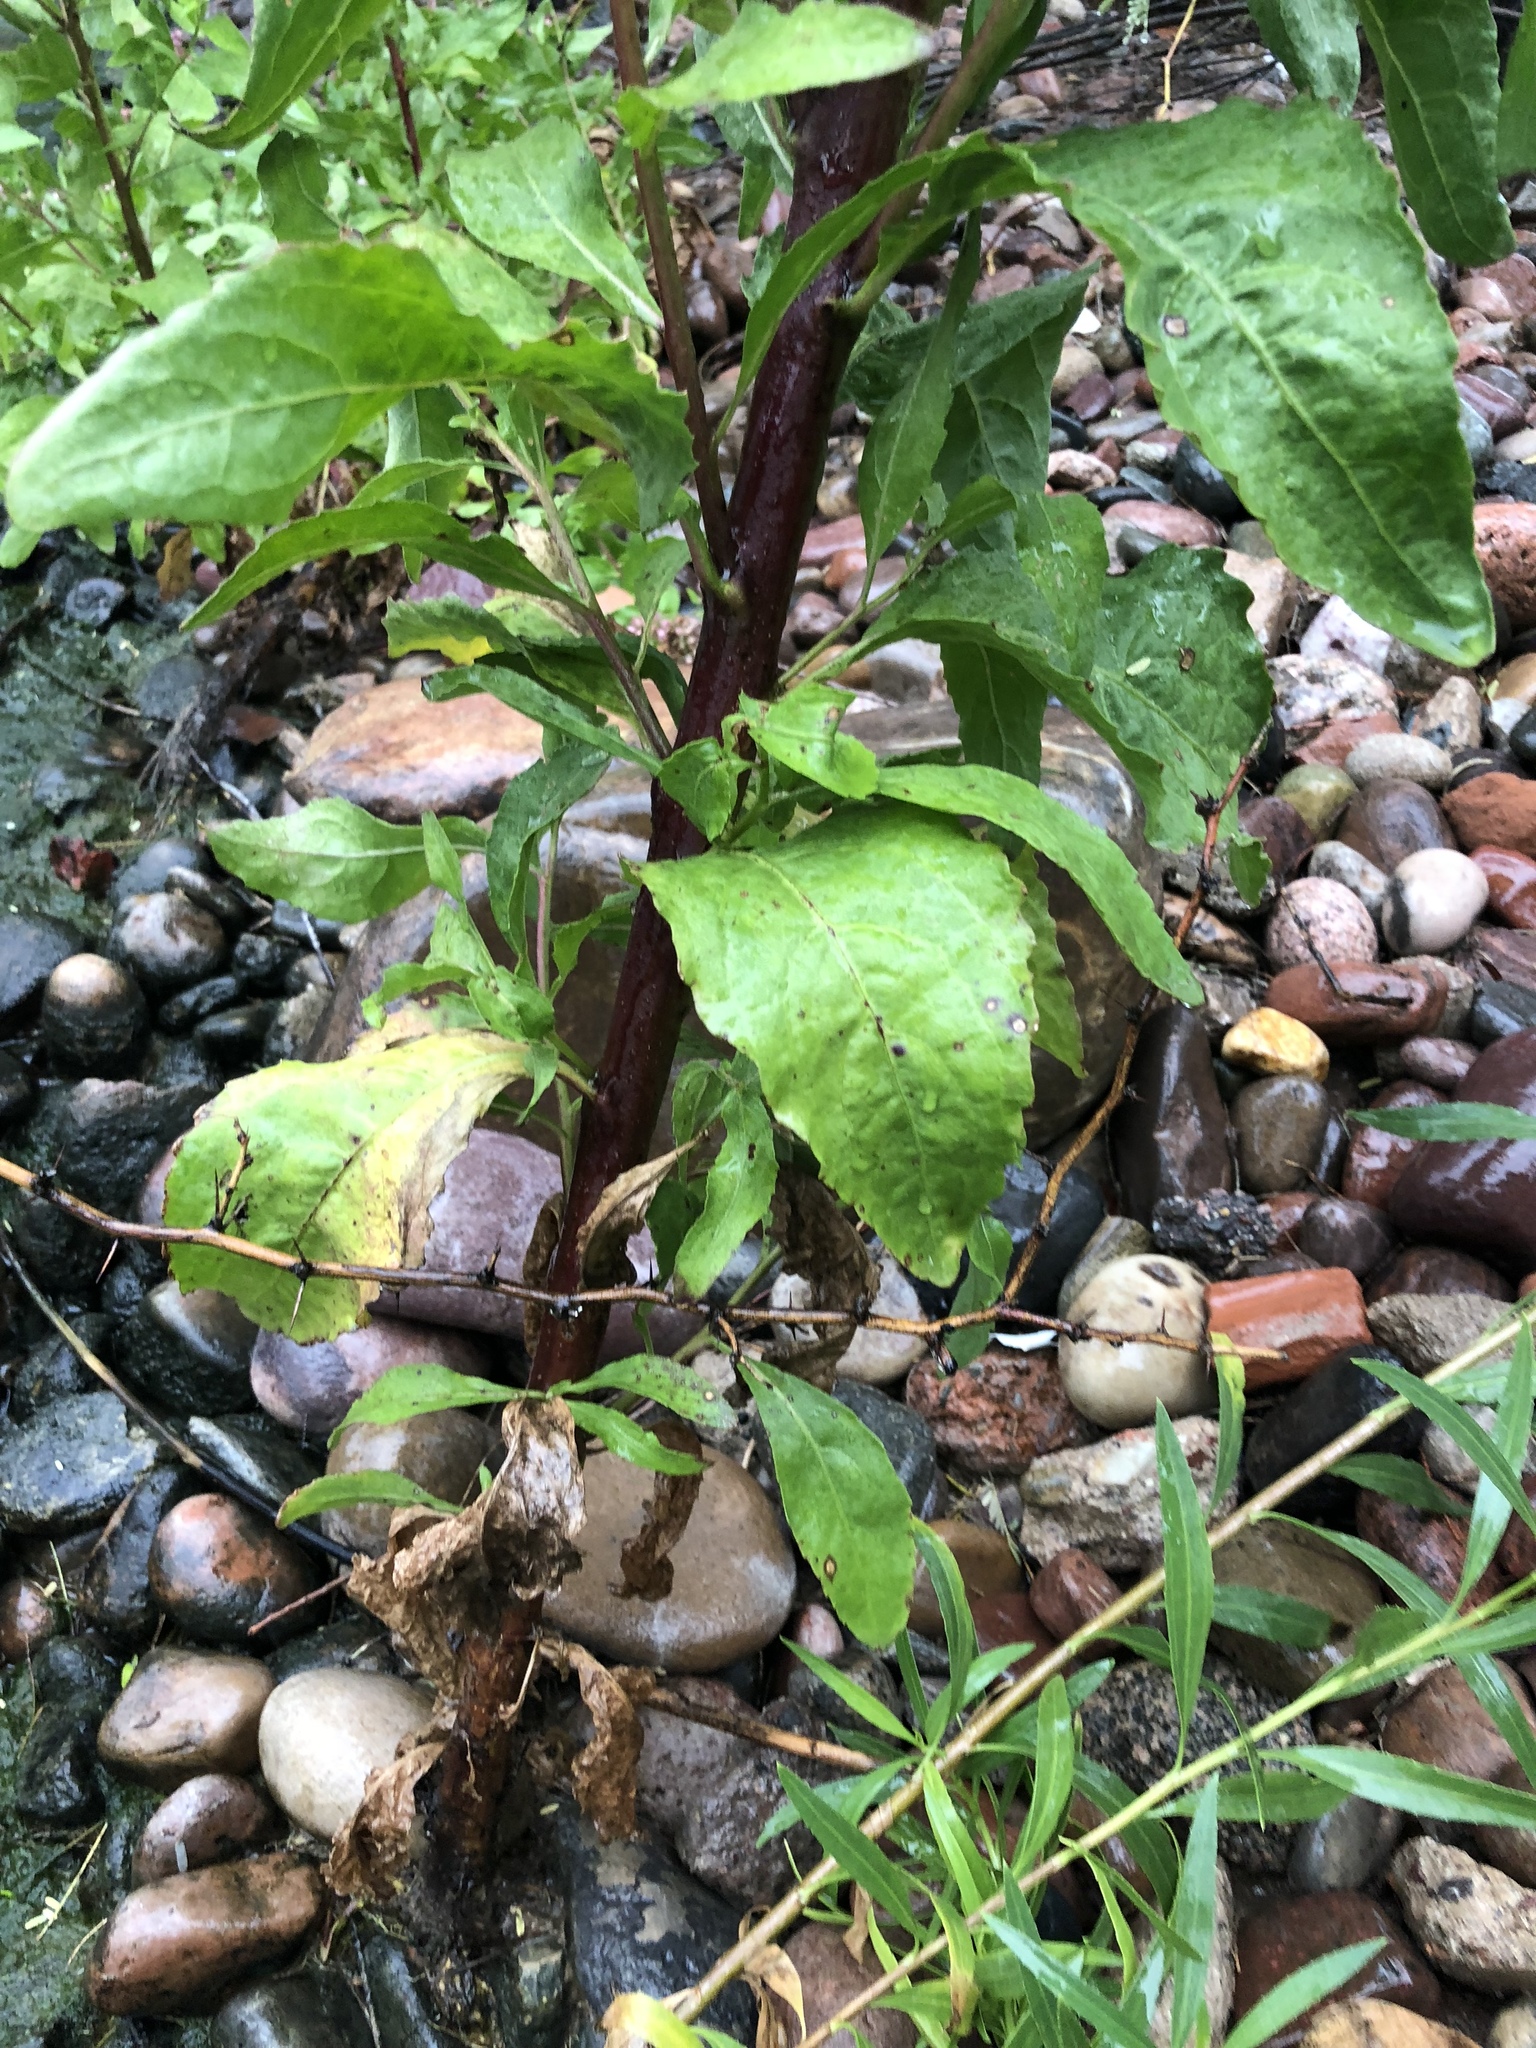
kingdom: Plantae
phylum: Tracheophyta
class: Magnoliopsida
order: Asterales
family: Asteraceae
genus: Pluchea
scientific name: Pluchea odorata
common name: Saltmarsh fleabane
